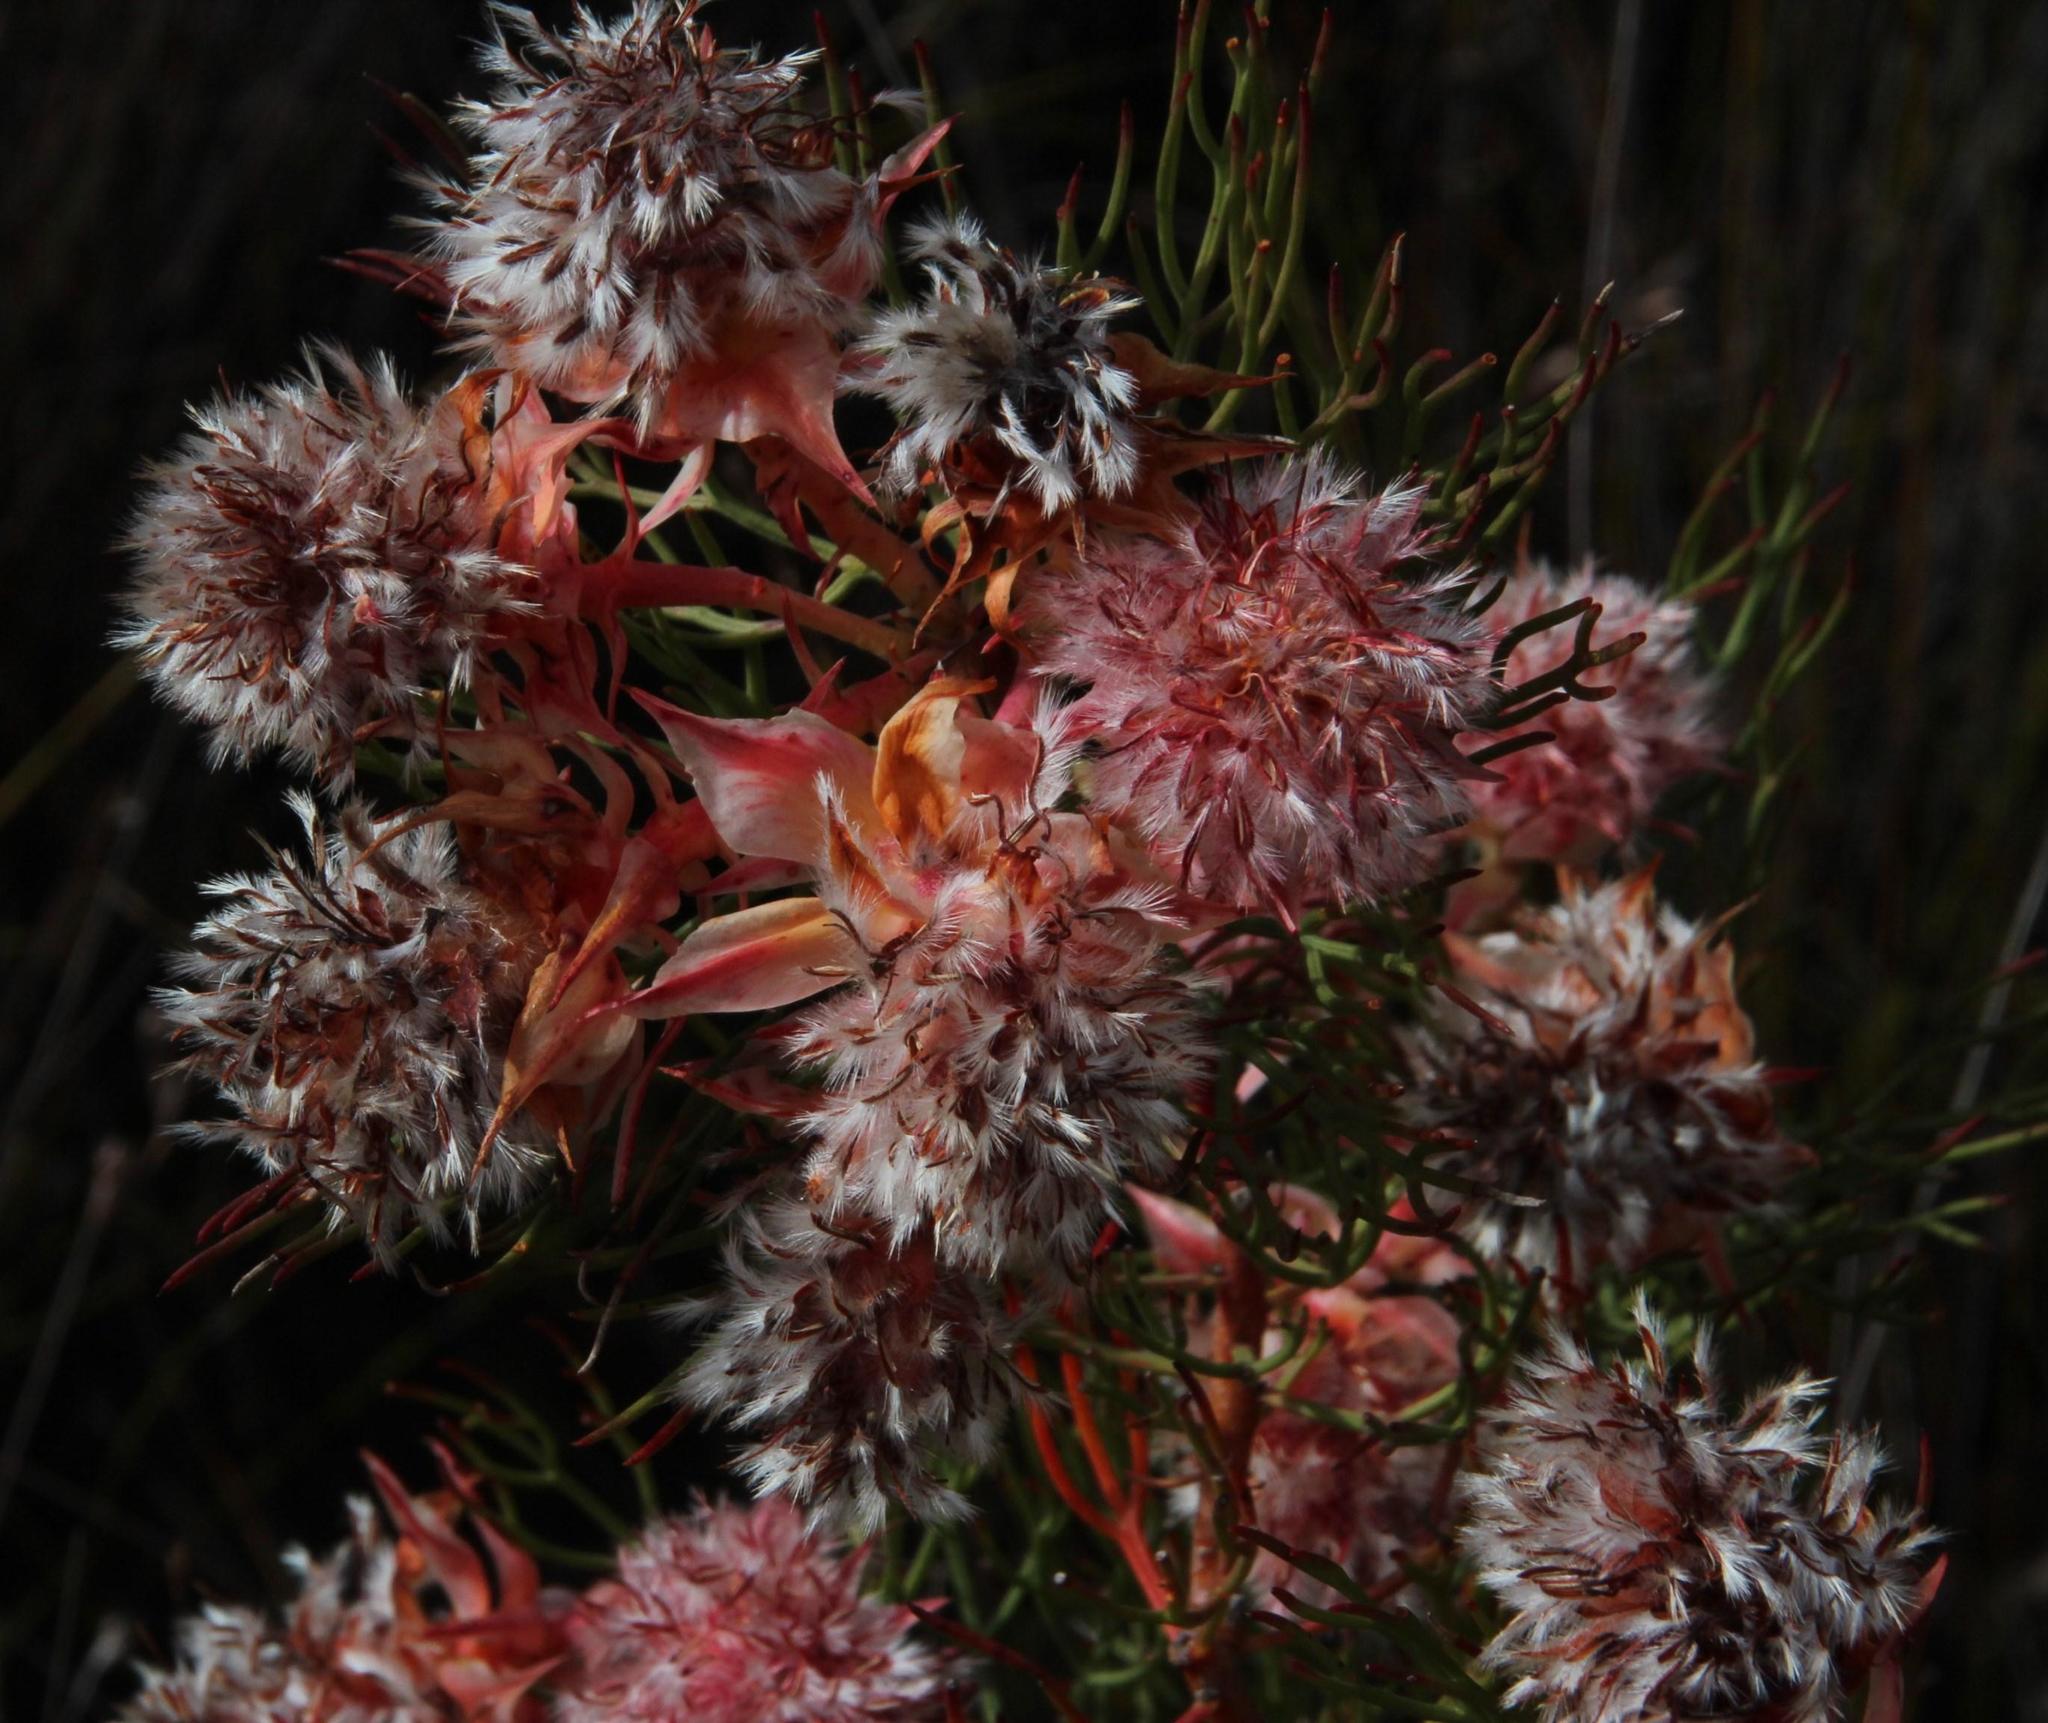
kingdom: Plantae
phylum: Tracheophyta
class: Magnoliopsida
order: Proteales
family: Proteaceae
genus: Serruria
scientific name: Serruria rosea
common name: Rose spiderhead
